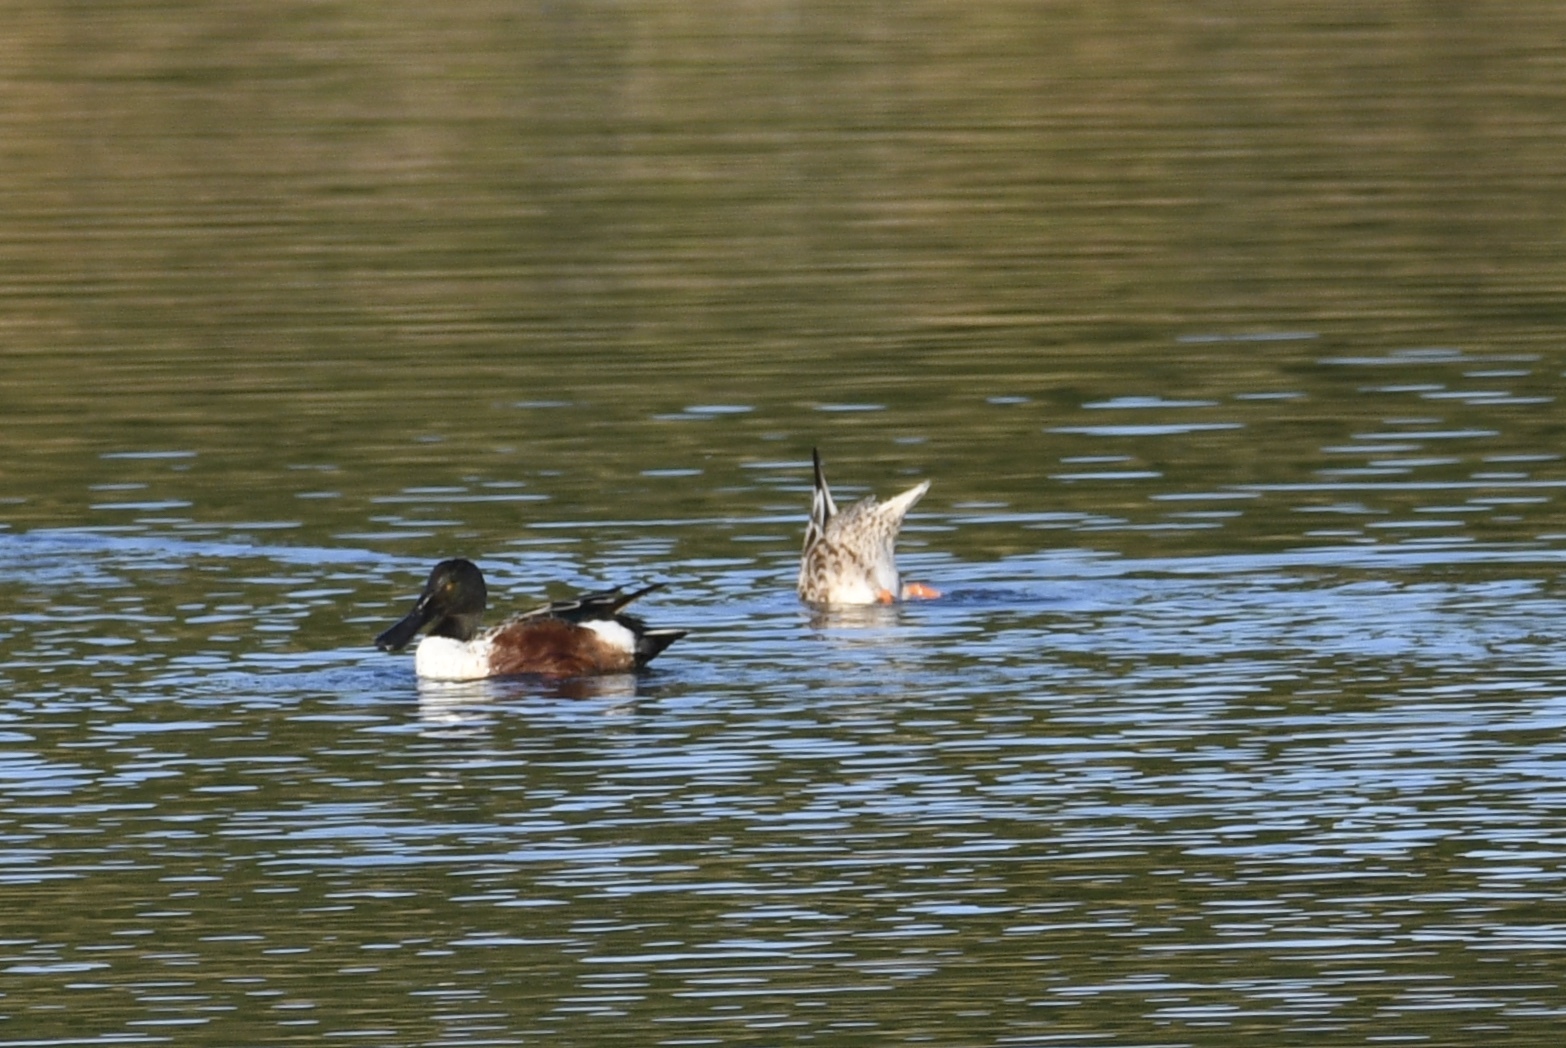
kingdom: Animalia
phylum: Chordata
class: Aves
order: Anseriformes
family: Anatidae
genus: Spatula
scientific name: Spatula clypeata
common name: Northern shoveler
